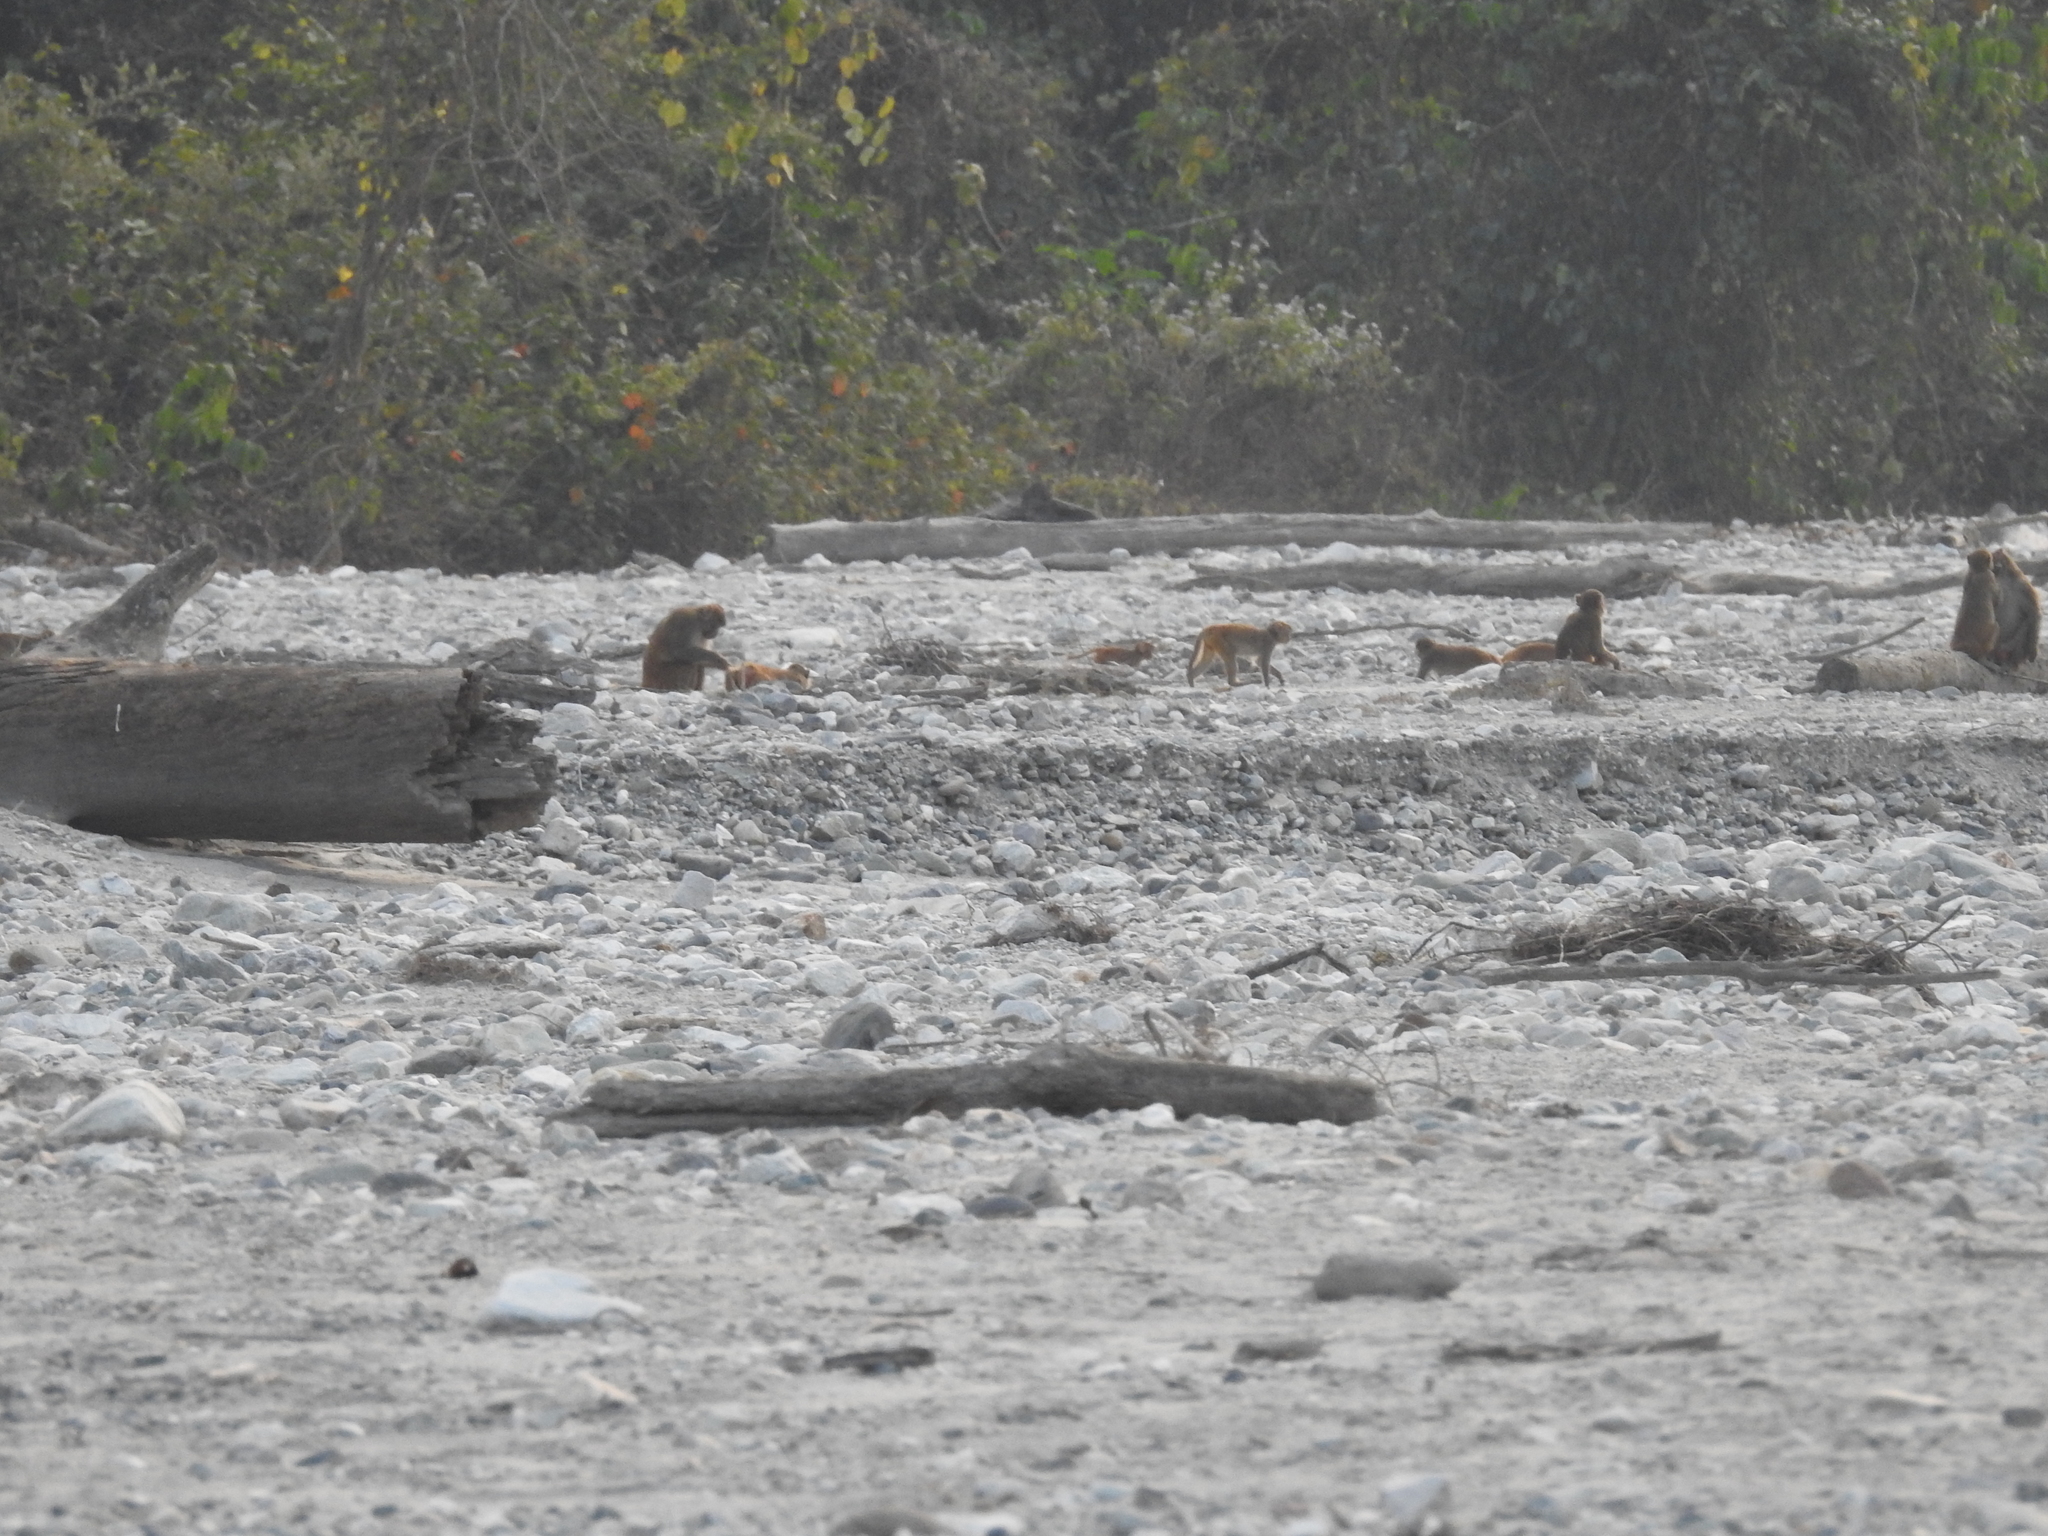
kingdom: Animalia
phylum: Chordata
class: Mammalia
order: Primates
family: Cercopithecidae
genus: Macaca
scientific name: Macaca mulatta
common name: Rhesus monkey
